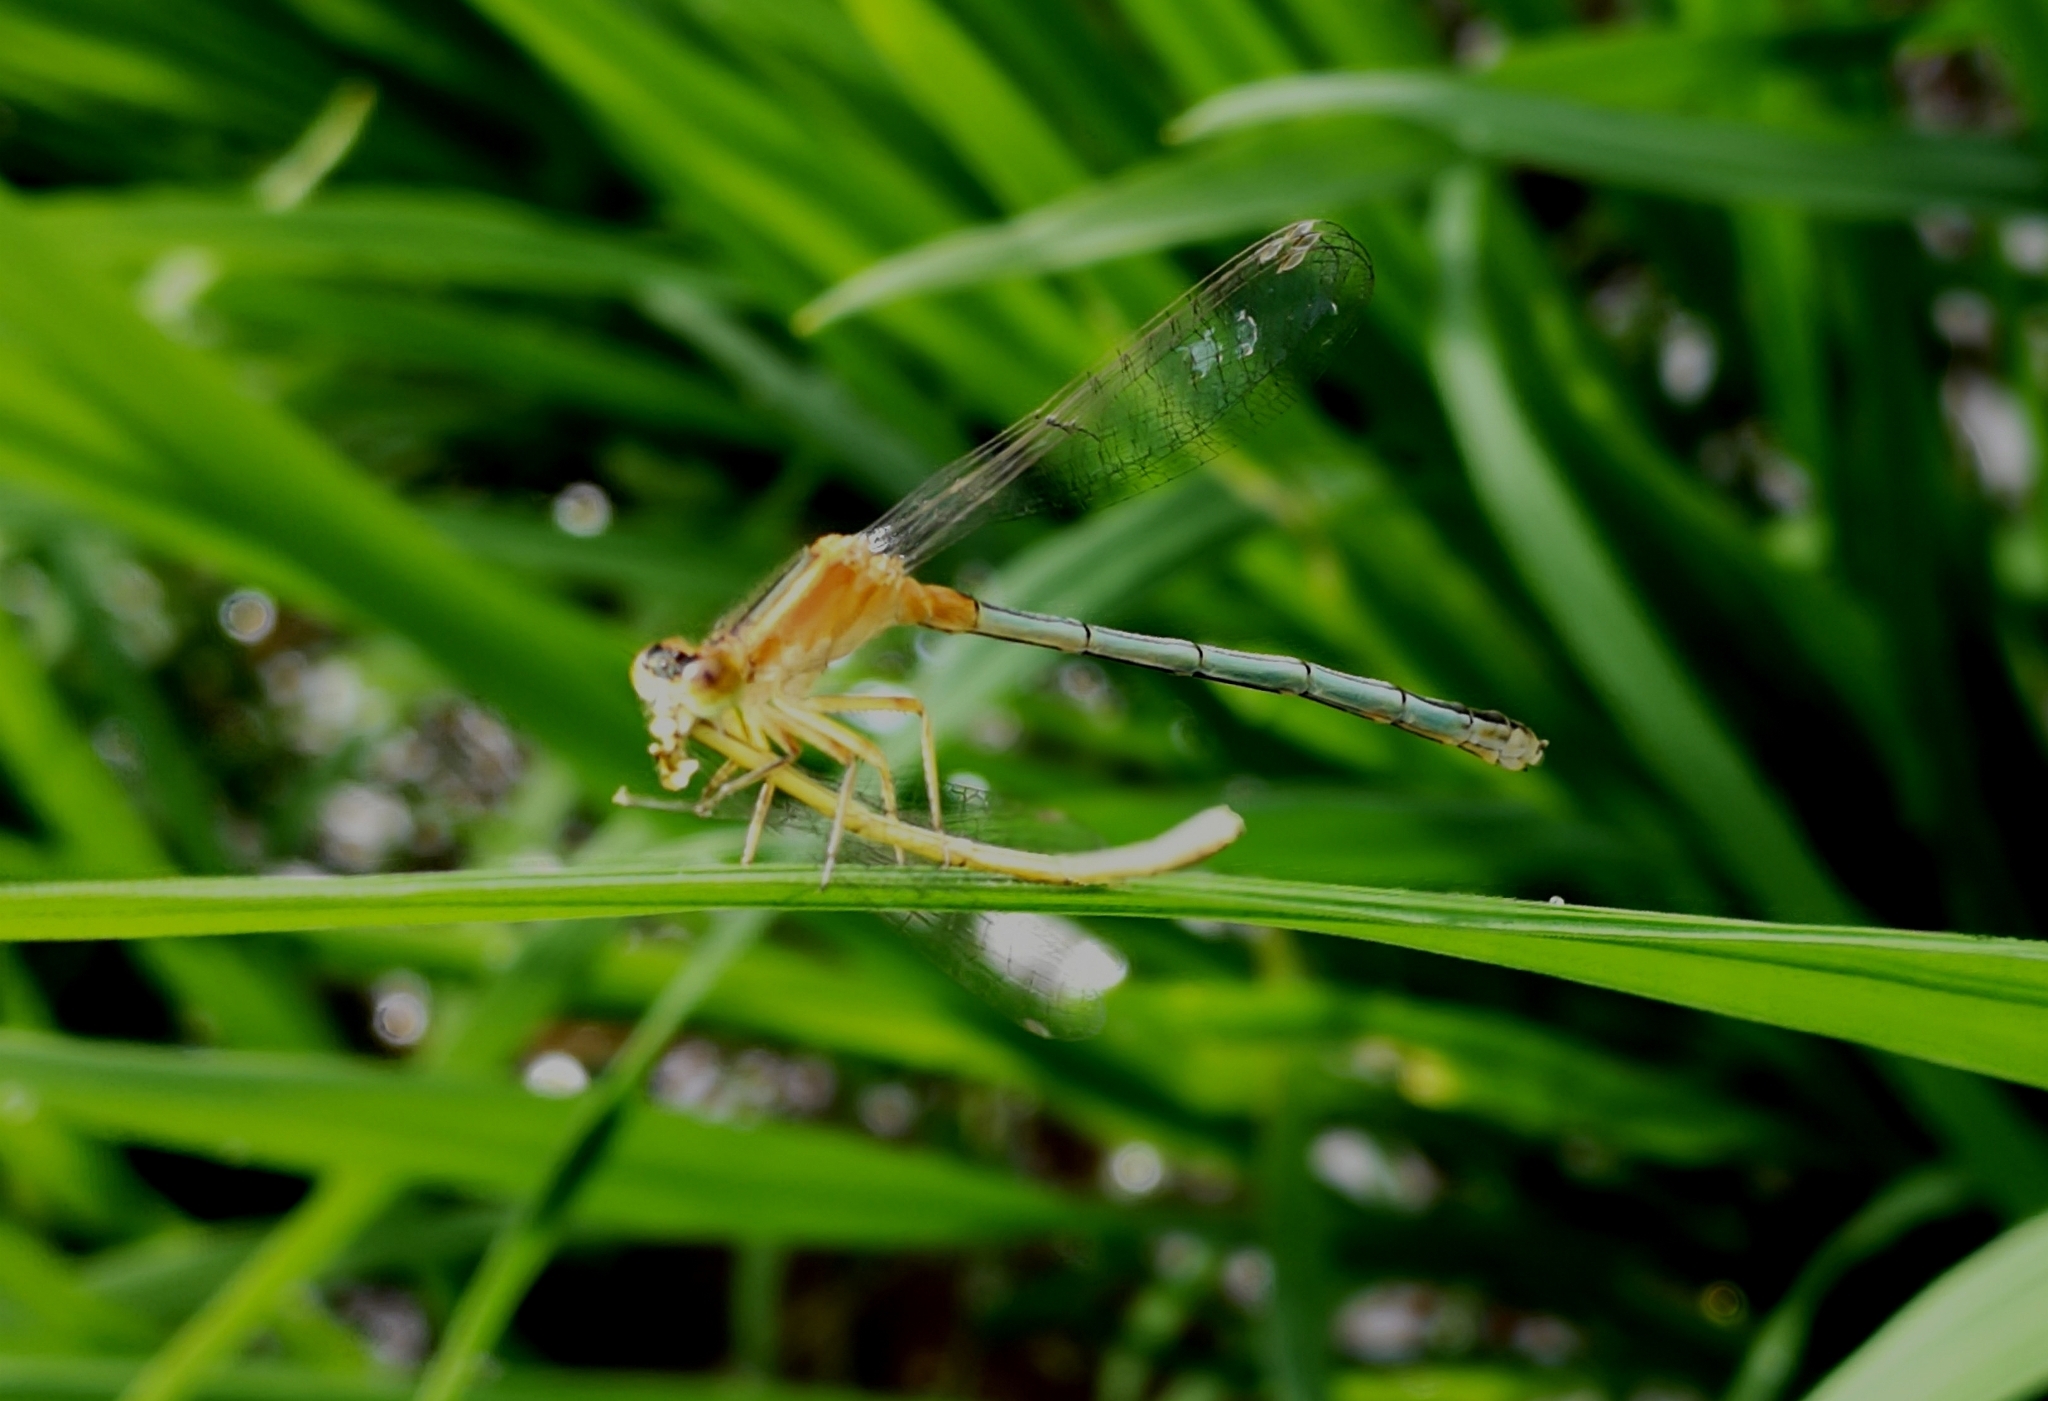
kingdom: Animalia
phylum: Arthropoda
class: Insecta
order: Odonata
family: Coenagrionidae
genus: Ischnura
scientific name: Ischnura senegalensis
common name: Tropical bluetail
